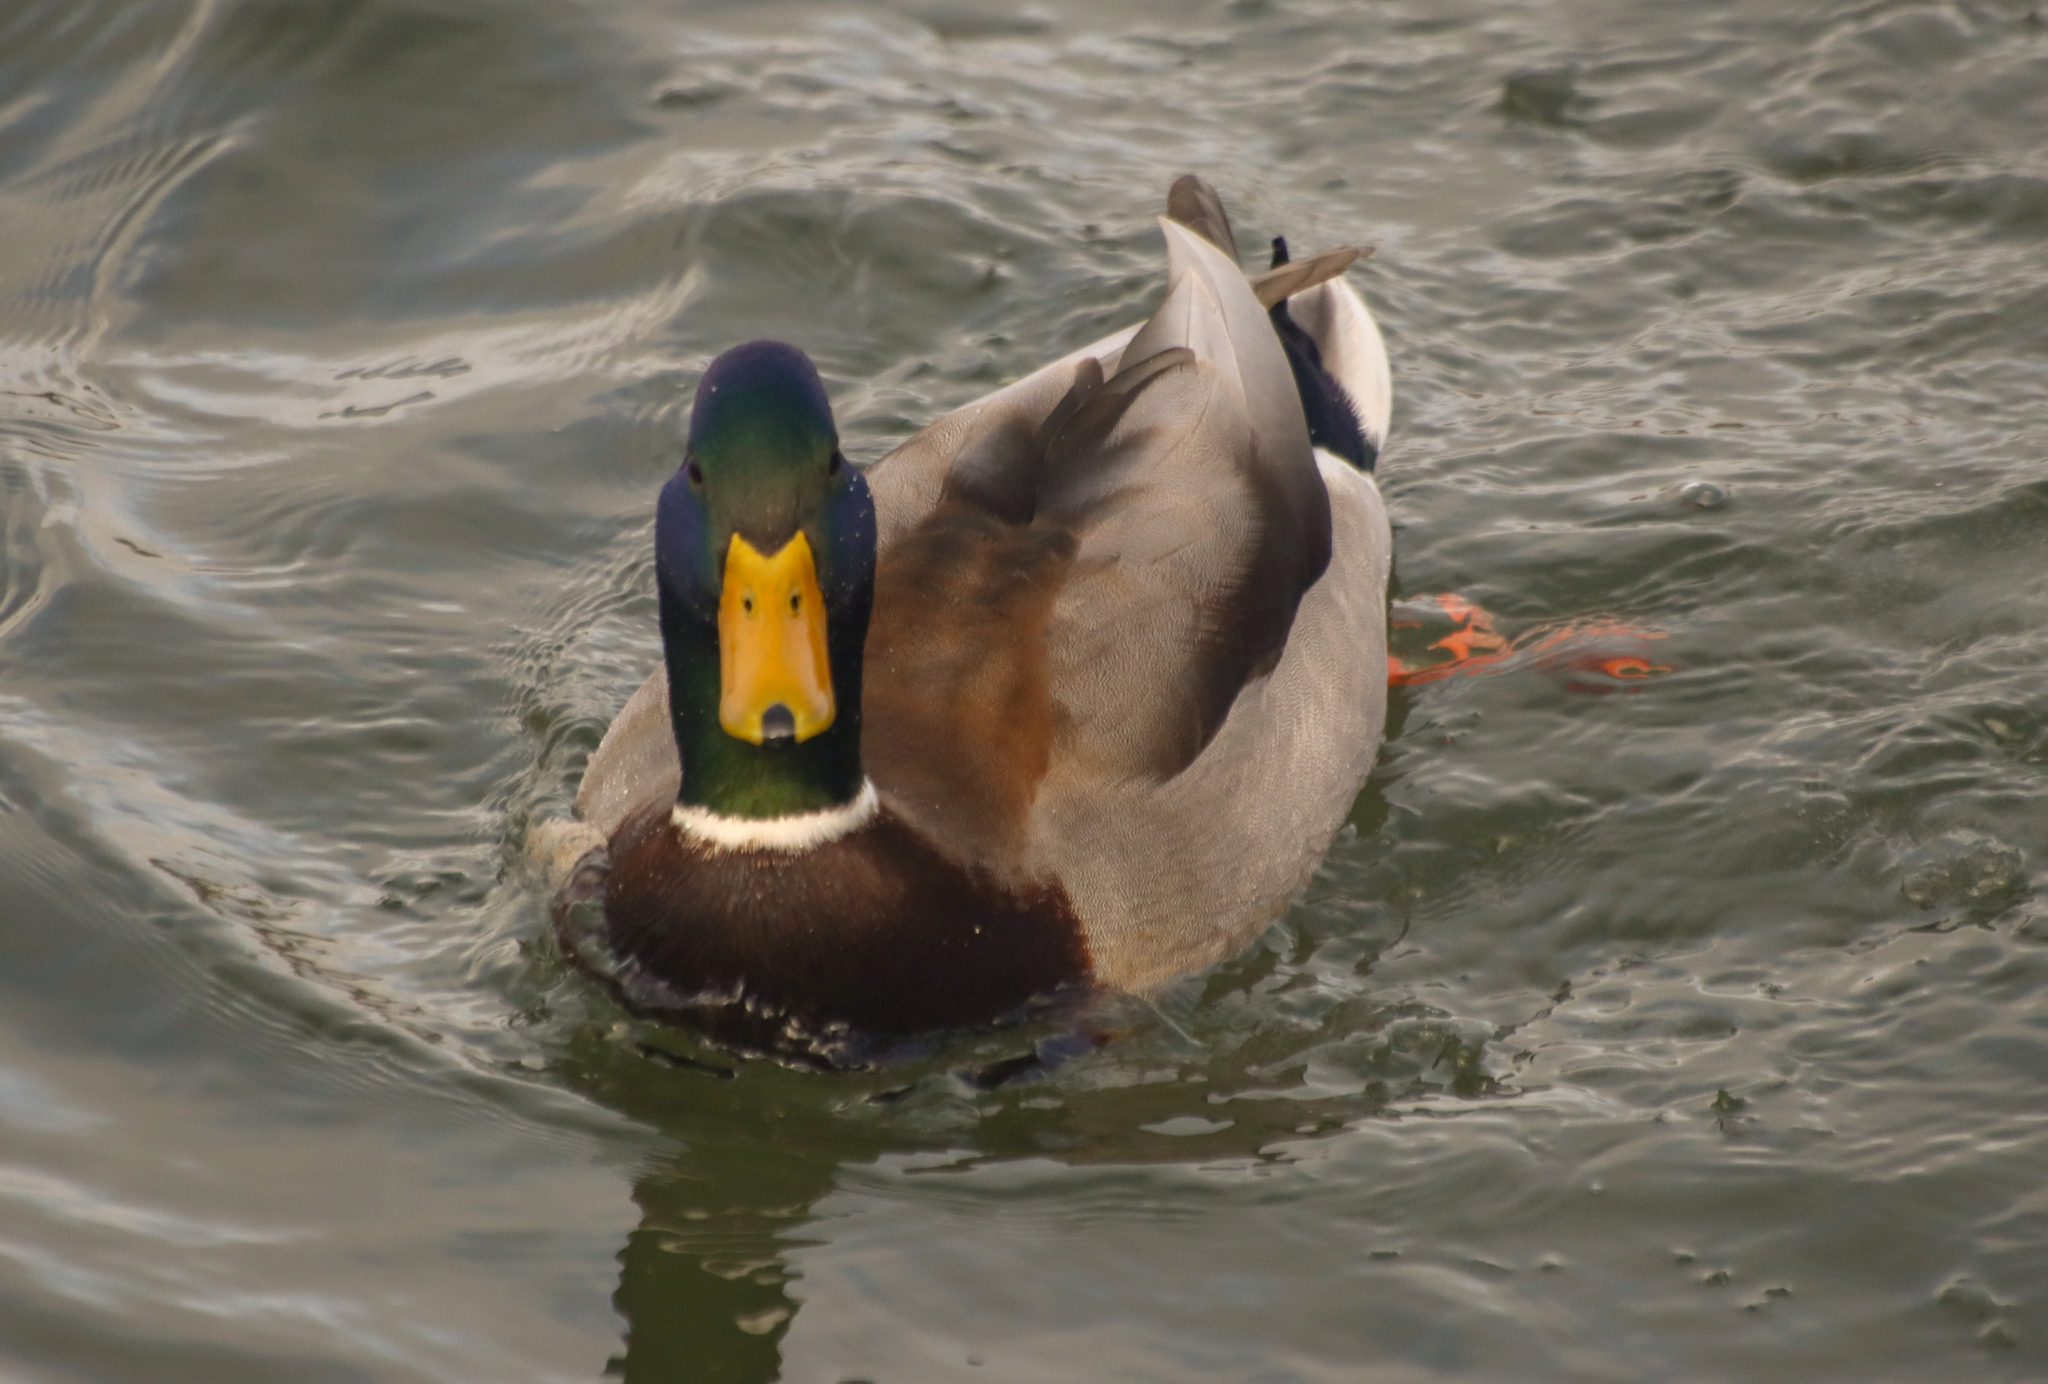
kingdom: Animalia
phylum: Chordata
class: Aves
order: Anseriformes
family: Anatidae
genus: Anas
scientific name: Anas platyrhynchos
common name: Mallard
